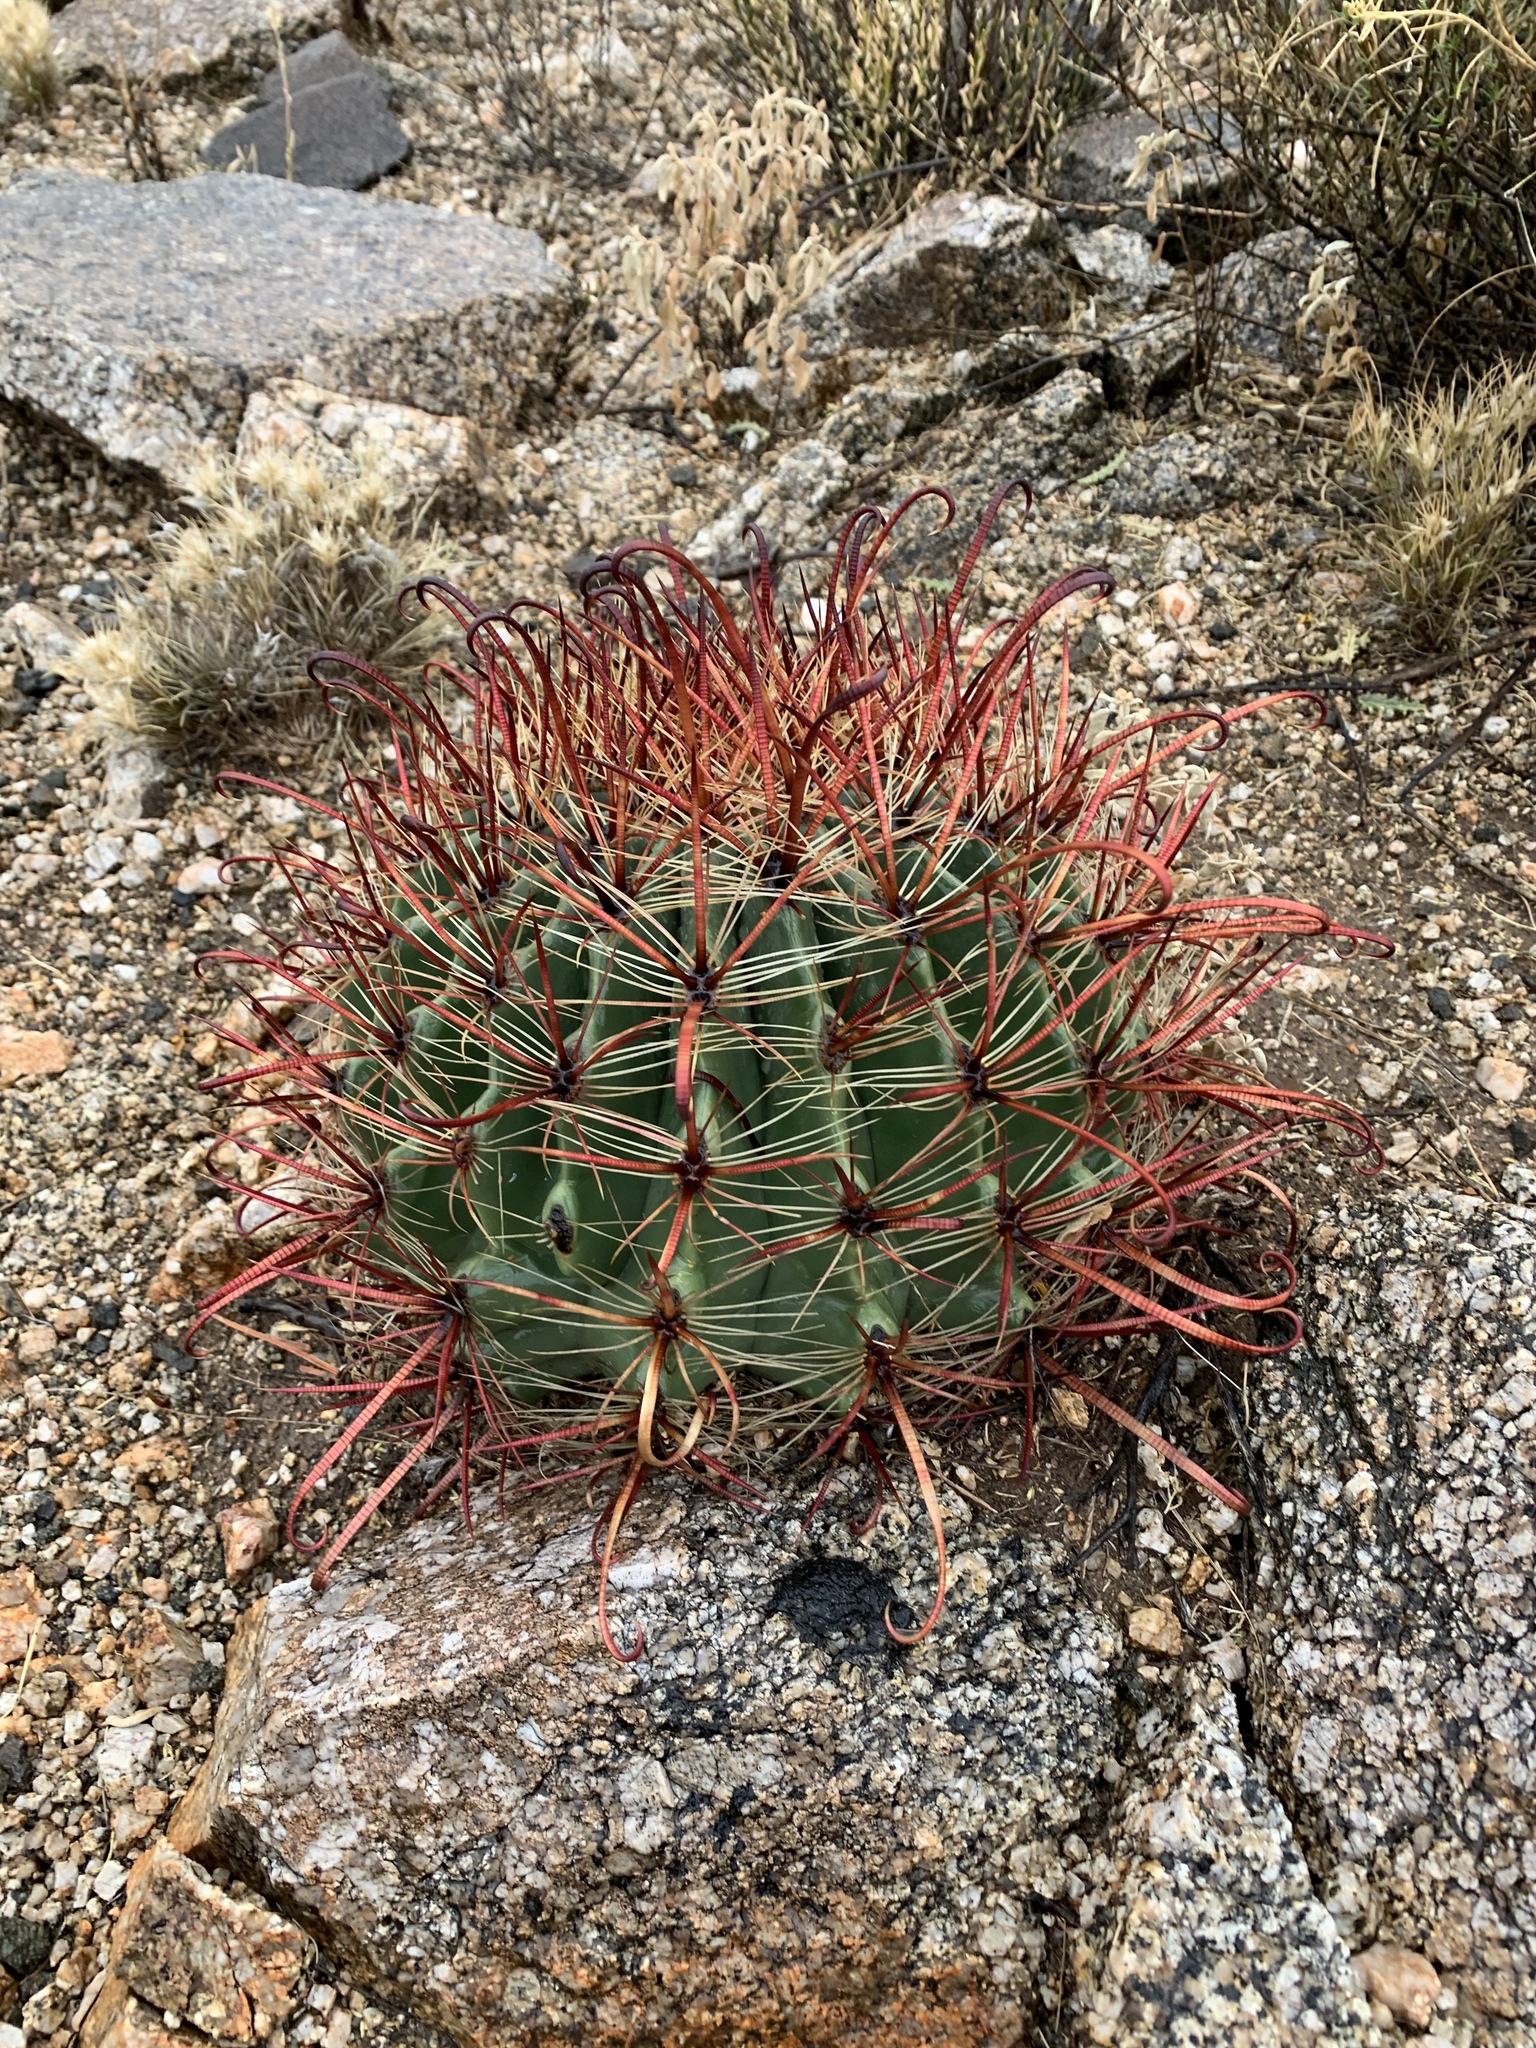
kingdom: Plantae
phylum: Tracheophyta
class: Magnoliopsida
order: Caryophyllales
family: Cactaceae
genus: Ferocactus
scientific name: Ferocactus wislizeni
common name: Candy barrel cactus
